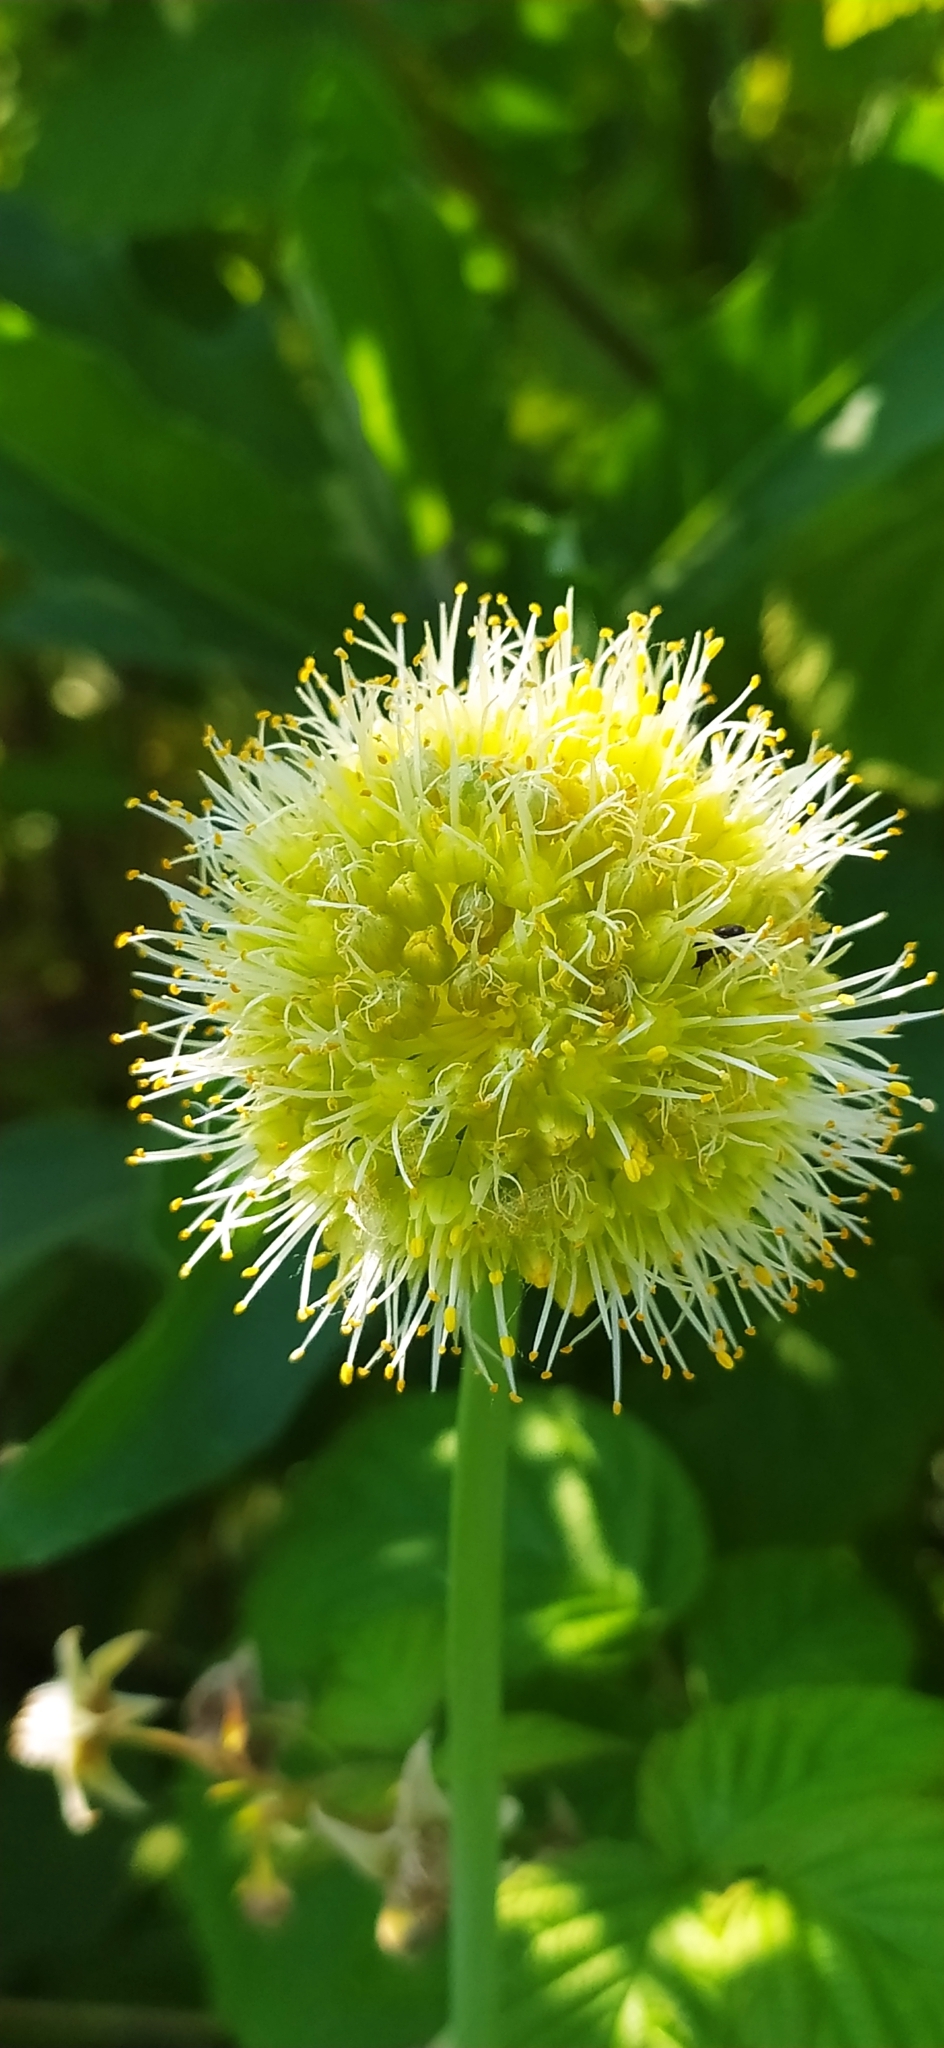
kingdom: Plantae
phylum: Tracheophyta
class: Liliopsida
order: Asparagales
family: Amaryllidaceae
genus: Allium
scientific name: Allium obliquum
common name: Oblique onion
